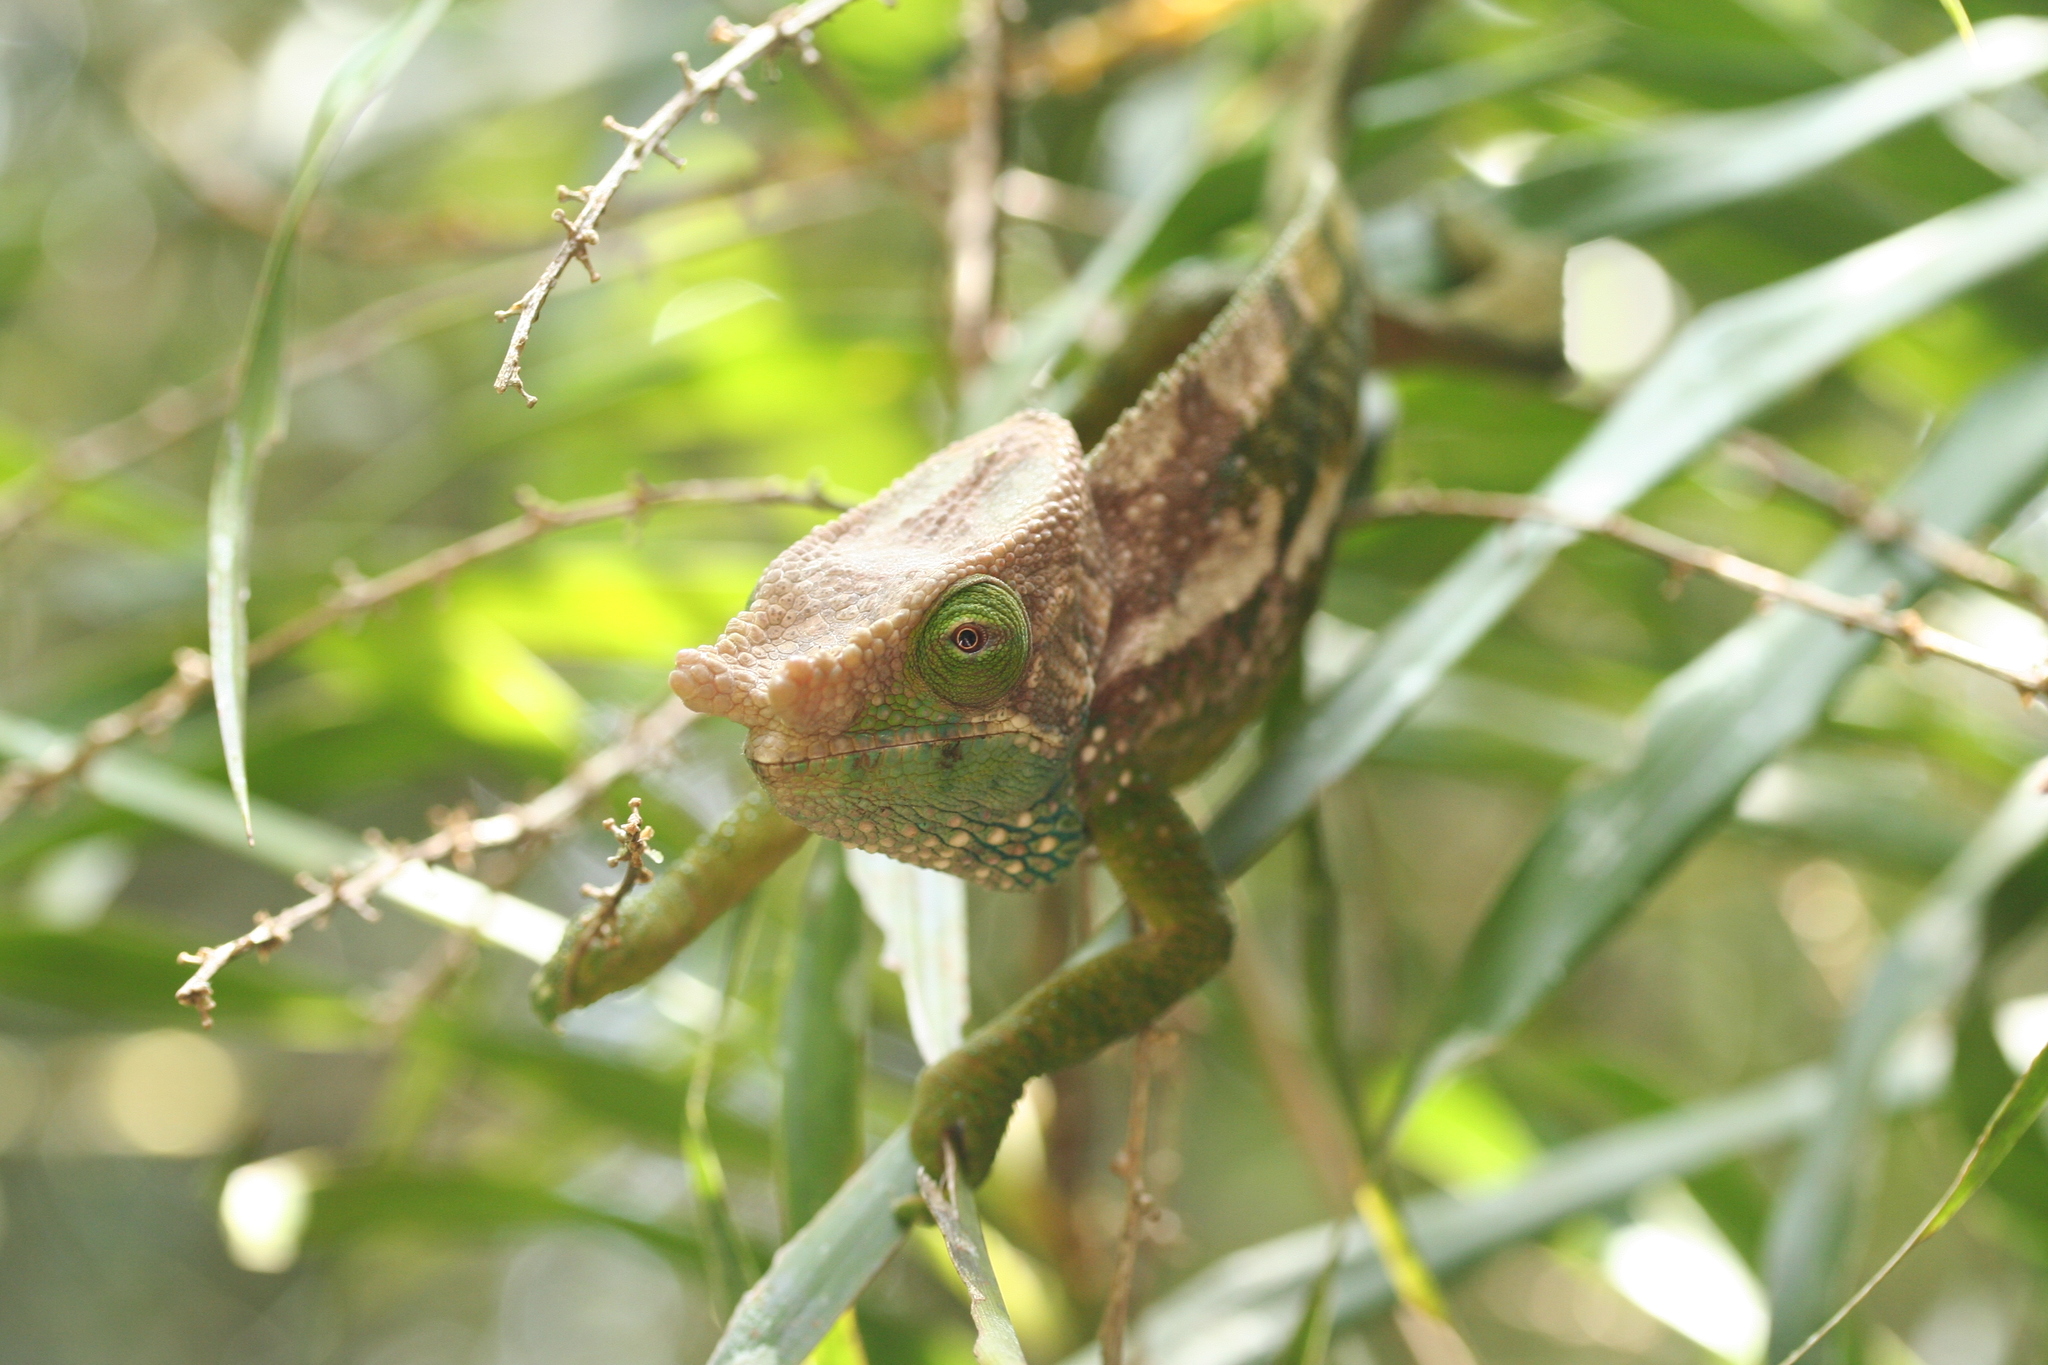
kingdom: Animalia
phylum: Chordata
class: Squamata
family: Chamaeleonidae
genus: Calumma
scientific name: Calumma oshaughnessyi
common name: O'shaughnessy's chameleon
